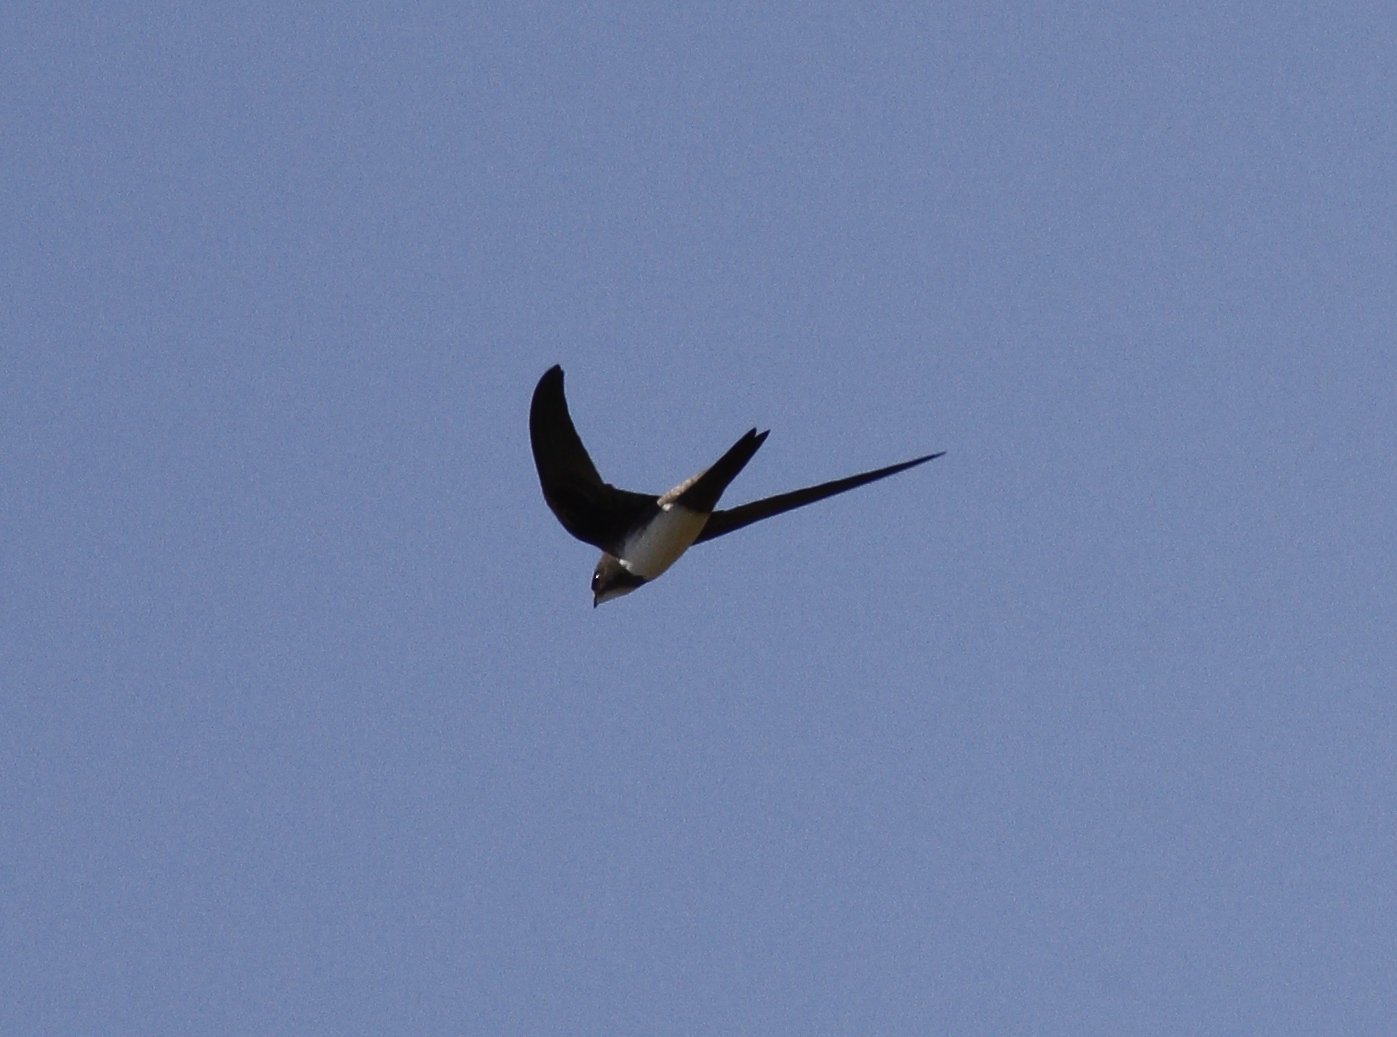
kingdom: Animalia
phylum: Chordata
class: Aves
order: Apodiformes
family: Apodidae
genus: Tachymarptis
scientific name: Tachymarptis melba
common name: Alpine swift
